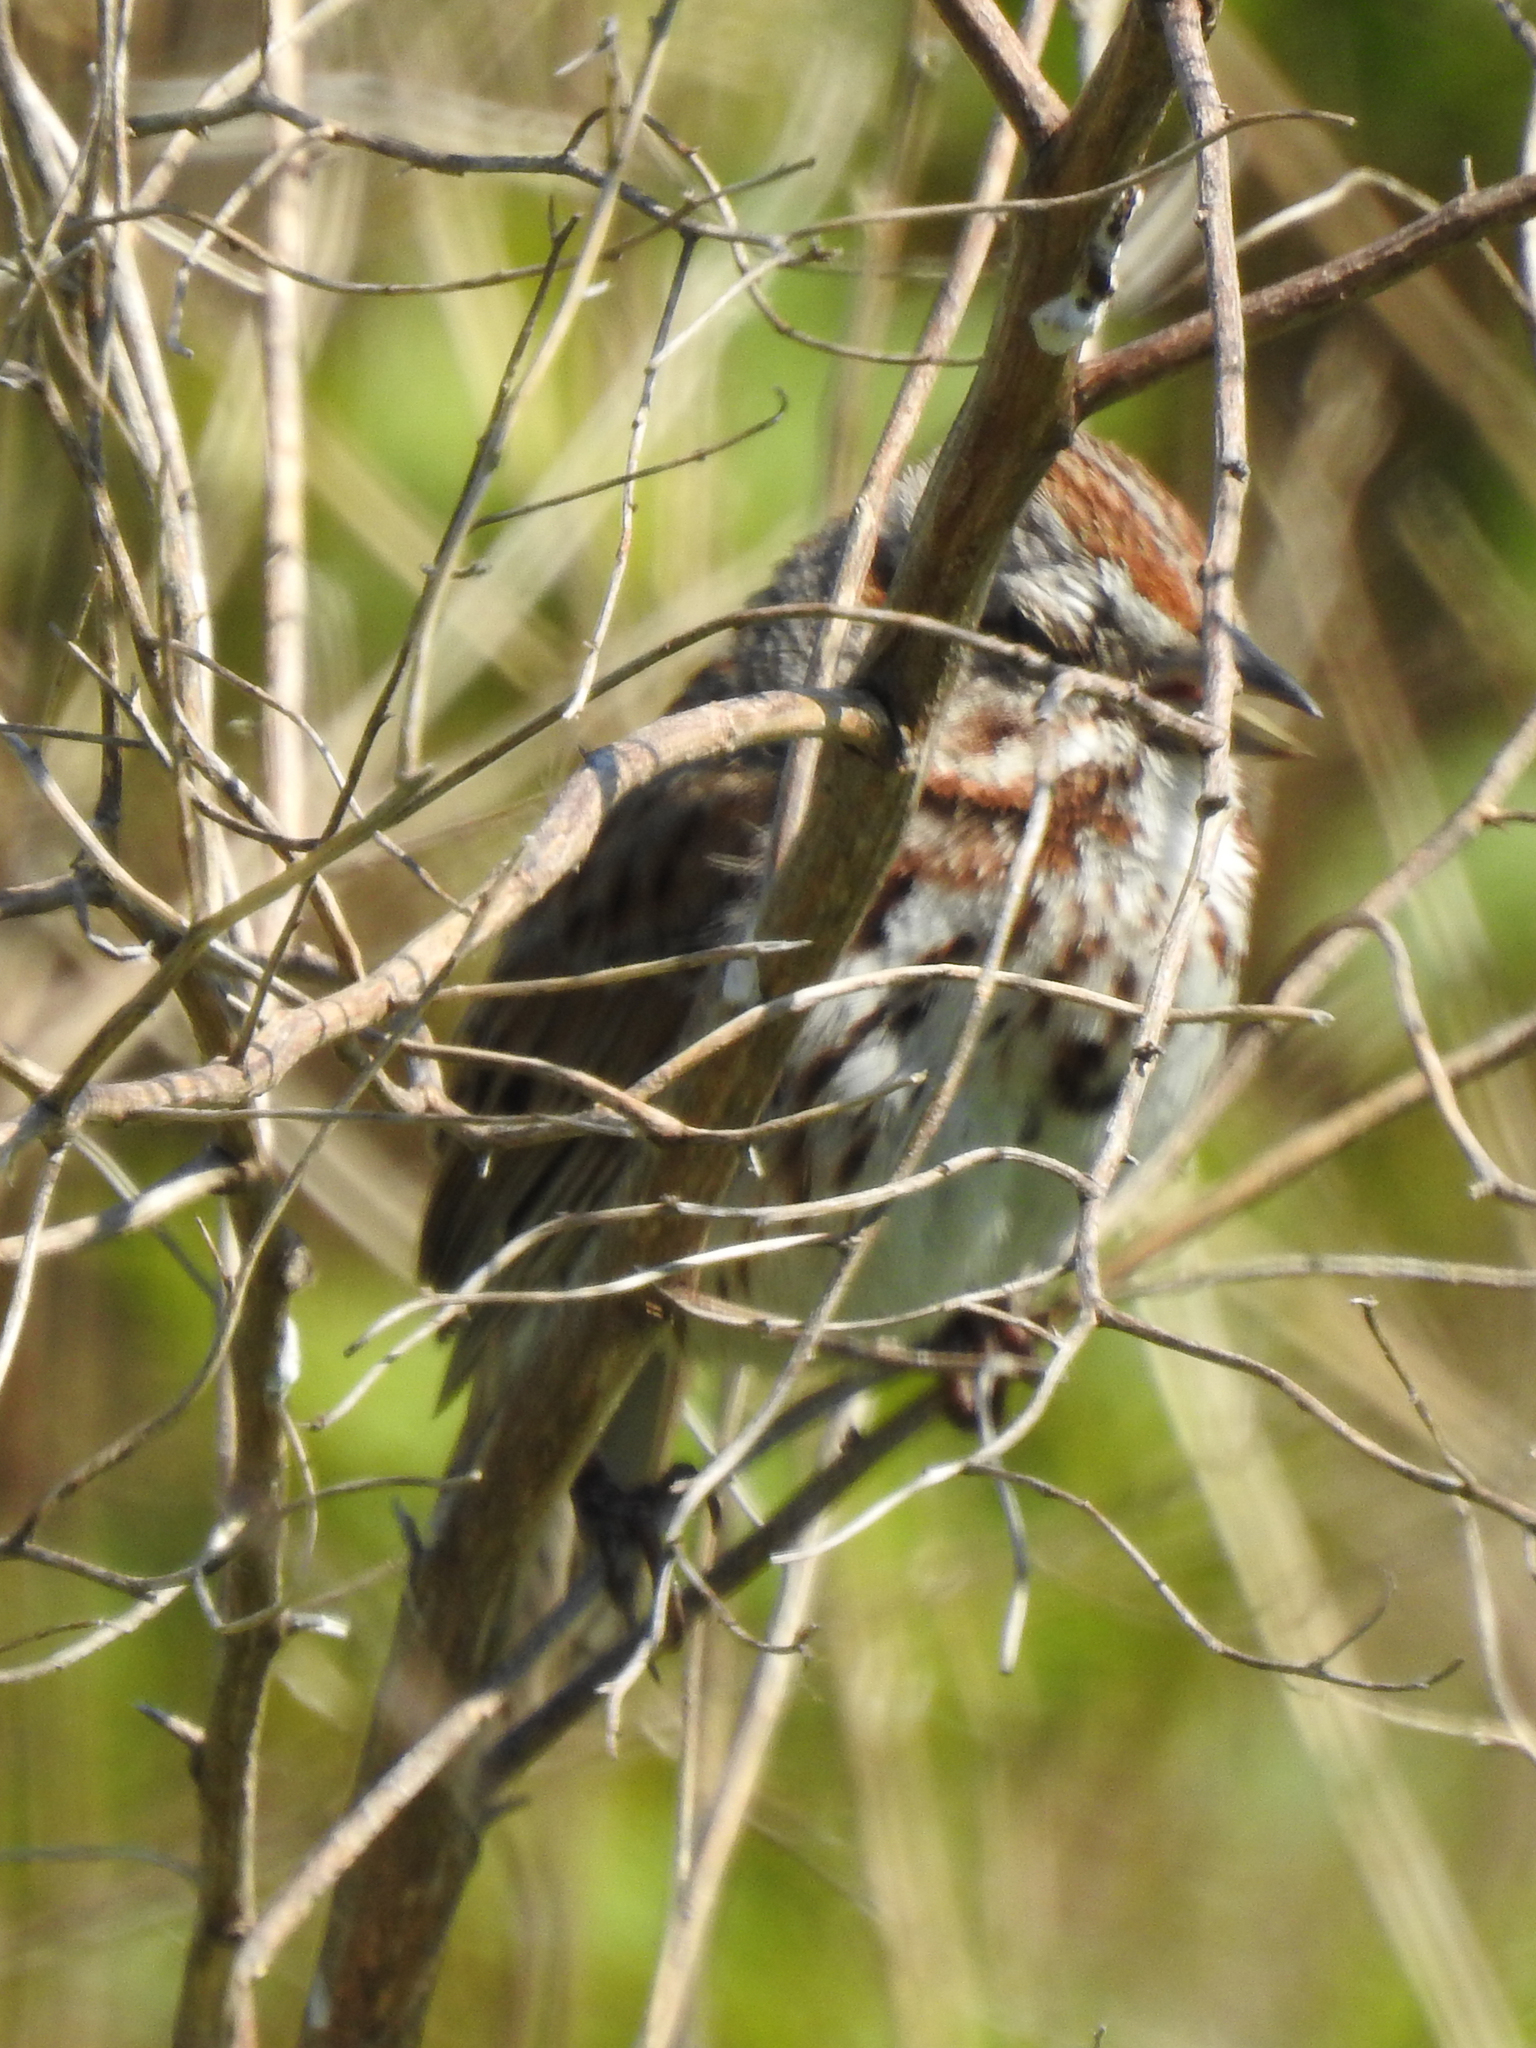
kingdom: Animalia
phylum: Chordata
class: Aves
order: Passeriformes
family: Passerellidae
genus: Melospiza
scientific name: Melospiza melodia
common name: Song sparrow
